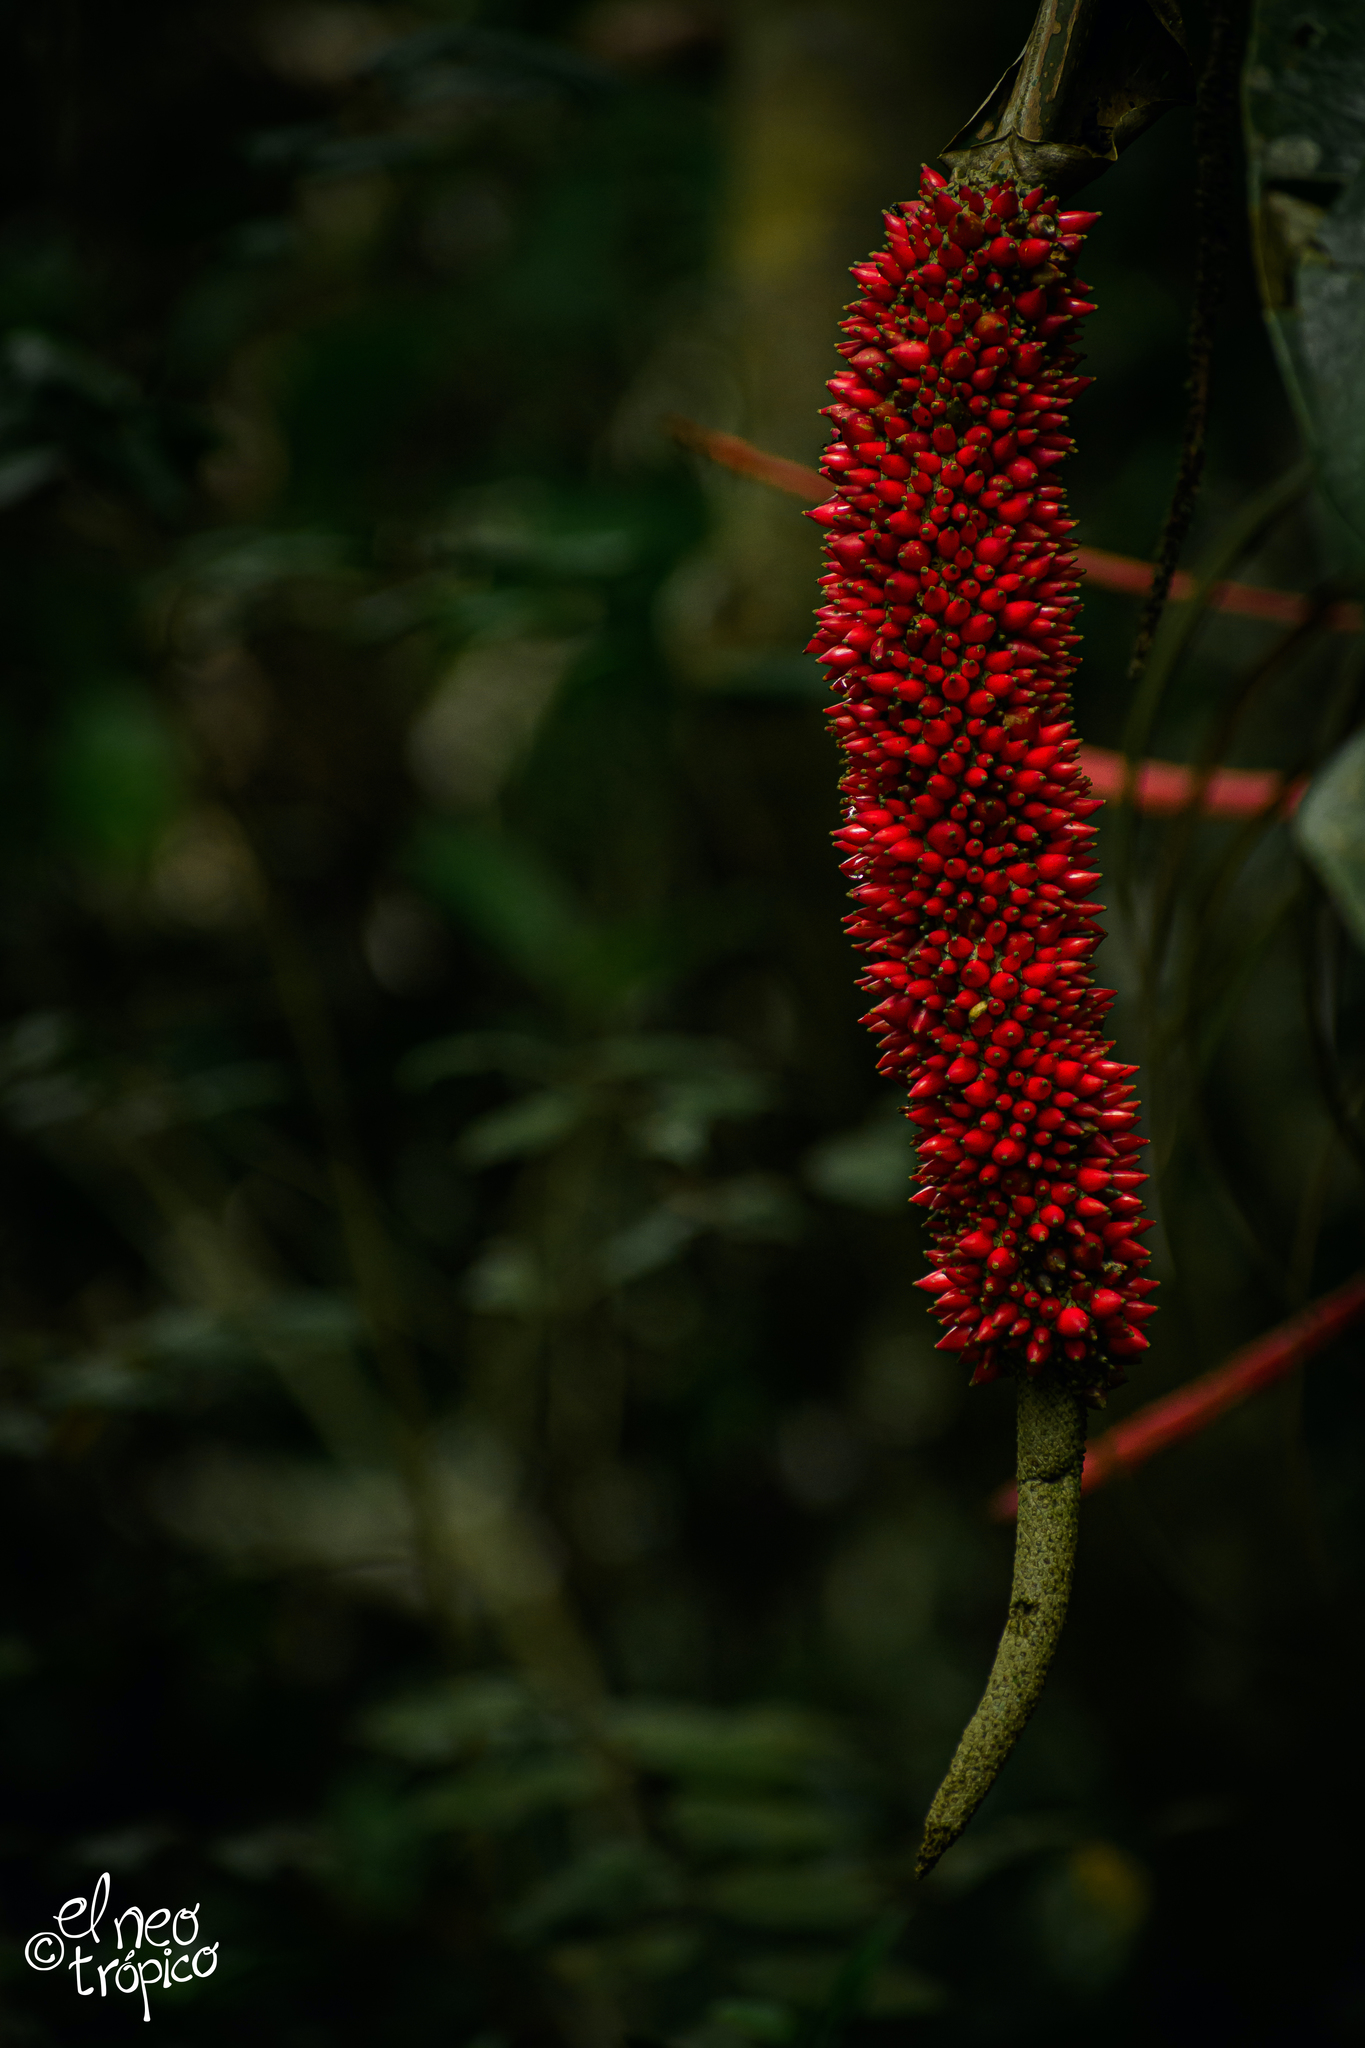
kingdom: Plantae
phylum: Tracheophyta
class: Liliopsida
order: Alismatales
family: Araceae
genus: Anthurium
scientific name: Anthurium schlechtendalii
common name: Laceleaf
